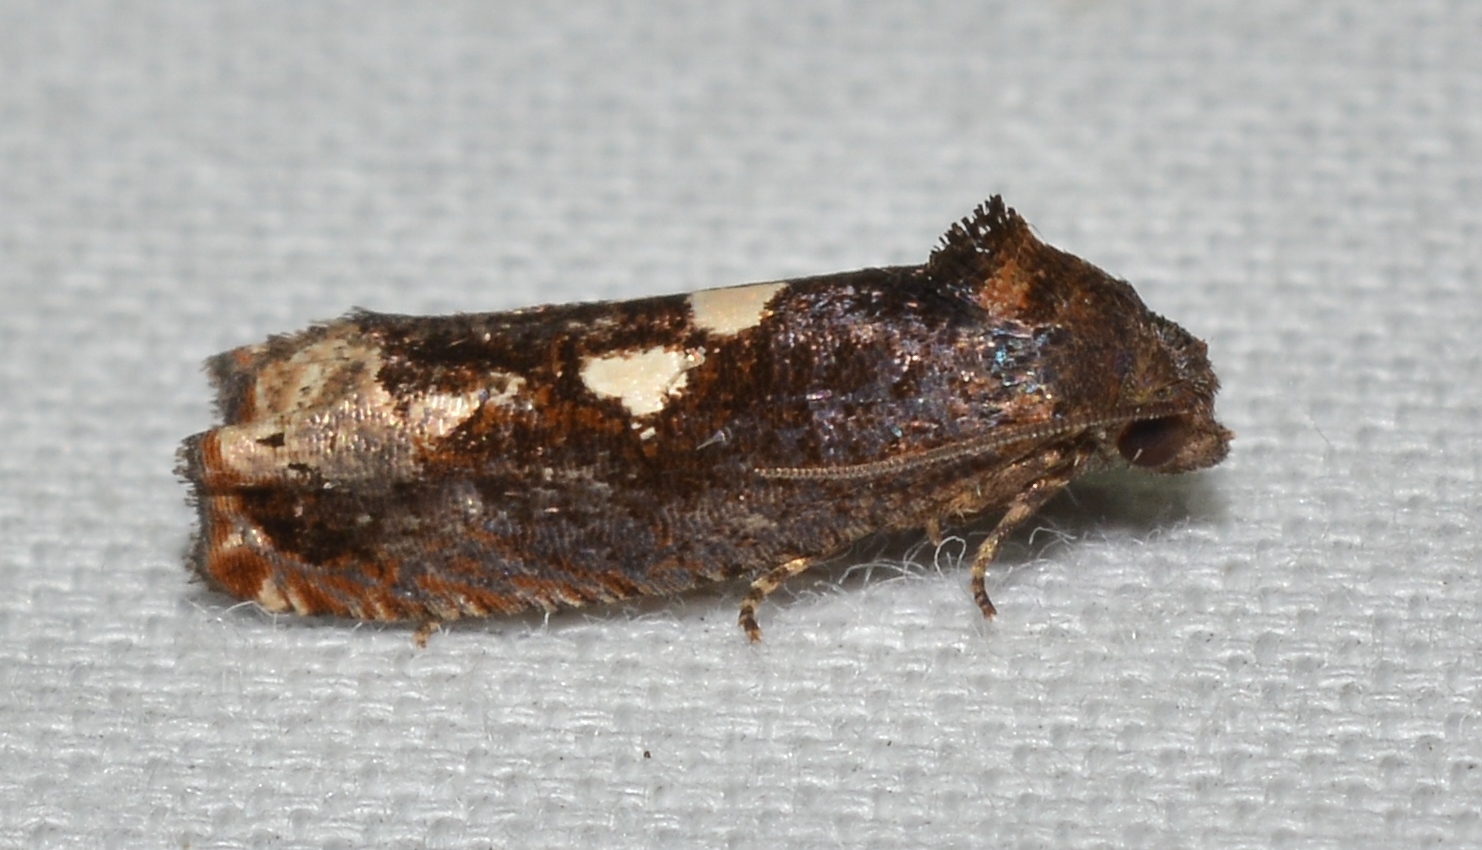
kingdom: Animalia
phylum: Arthropoda
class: Insecta
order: Lepidoptera
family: Tortricidae
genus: Epiblema
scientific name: Epiblema otiosana
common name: Bidens borer moth
